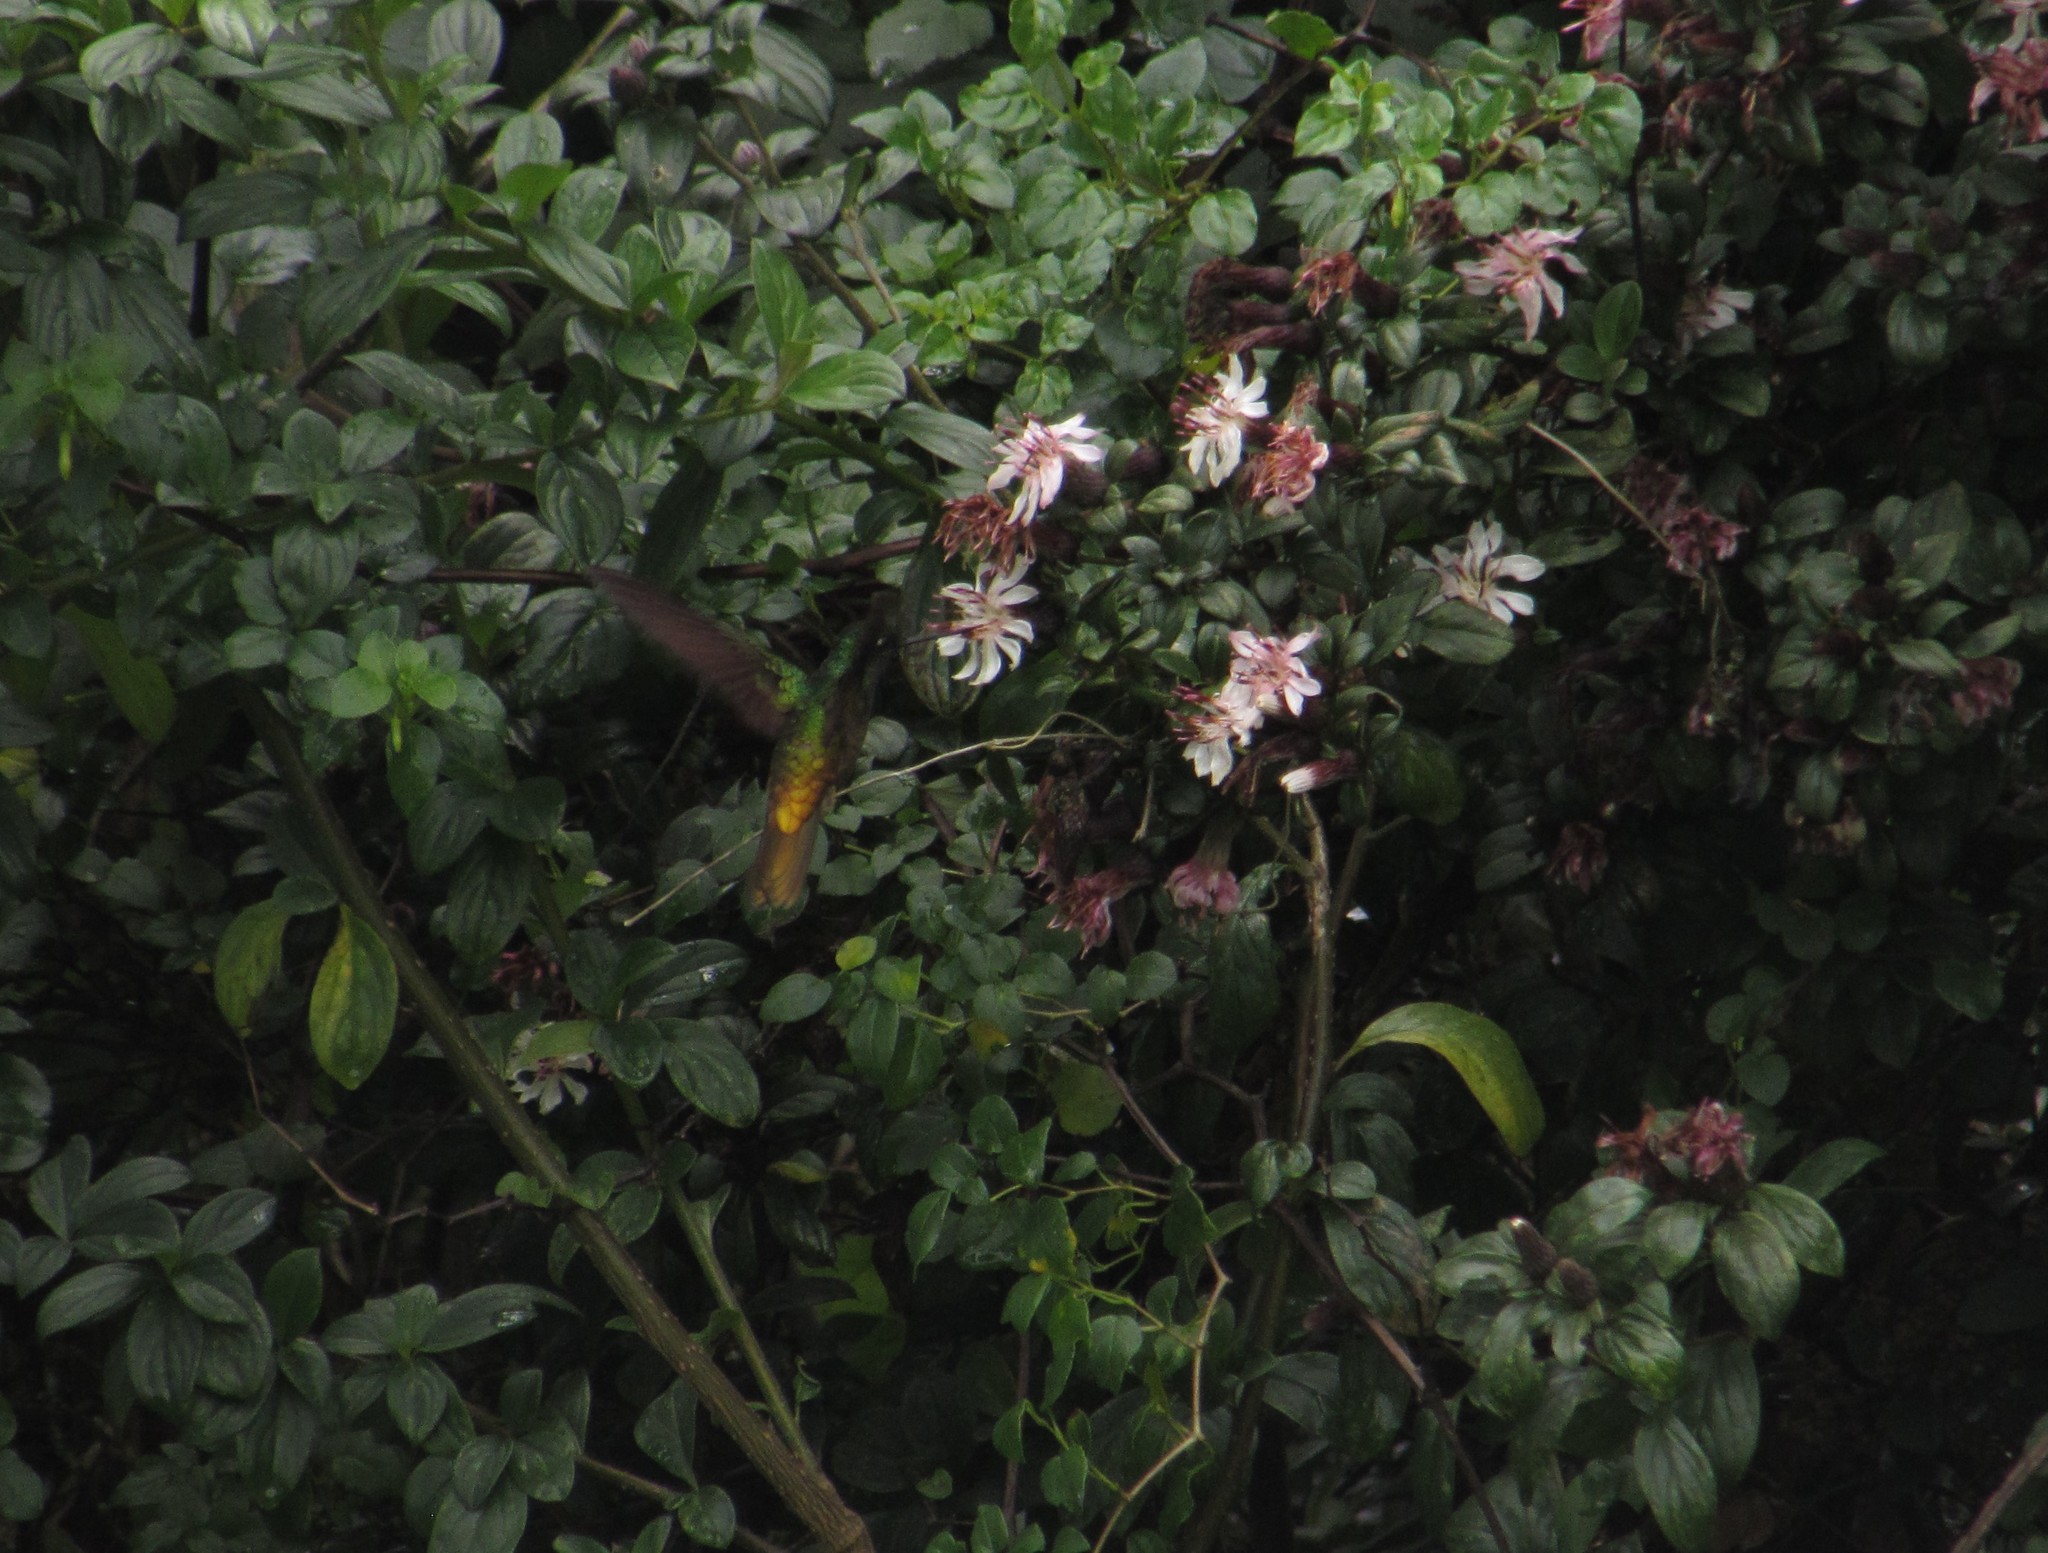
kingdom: Animalia
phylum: Chordata
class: Aves
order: Apodiformes
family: Trochilidae
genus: Coeligena
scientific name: Coeligena bonapartei
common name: Golden-bellied starfrontlet
